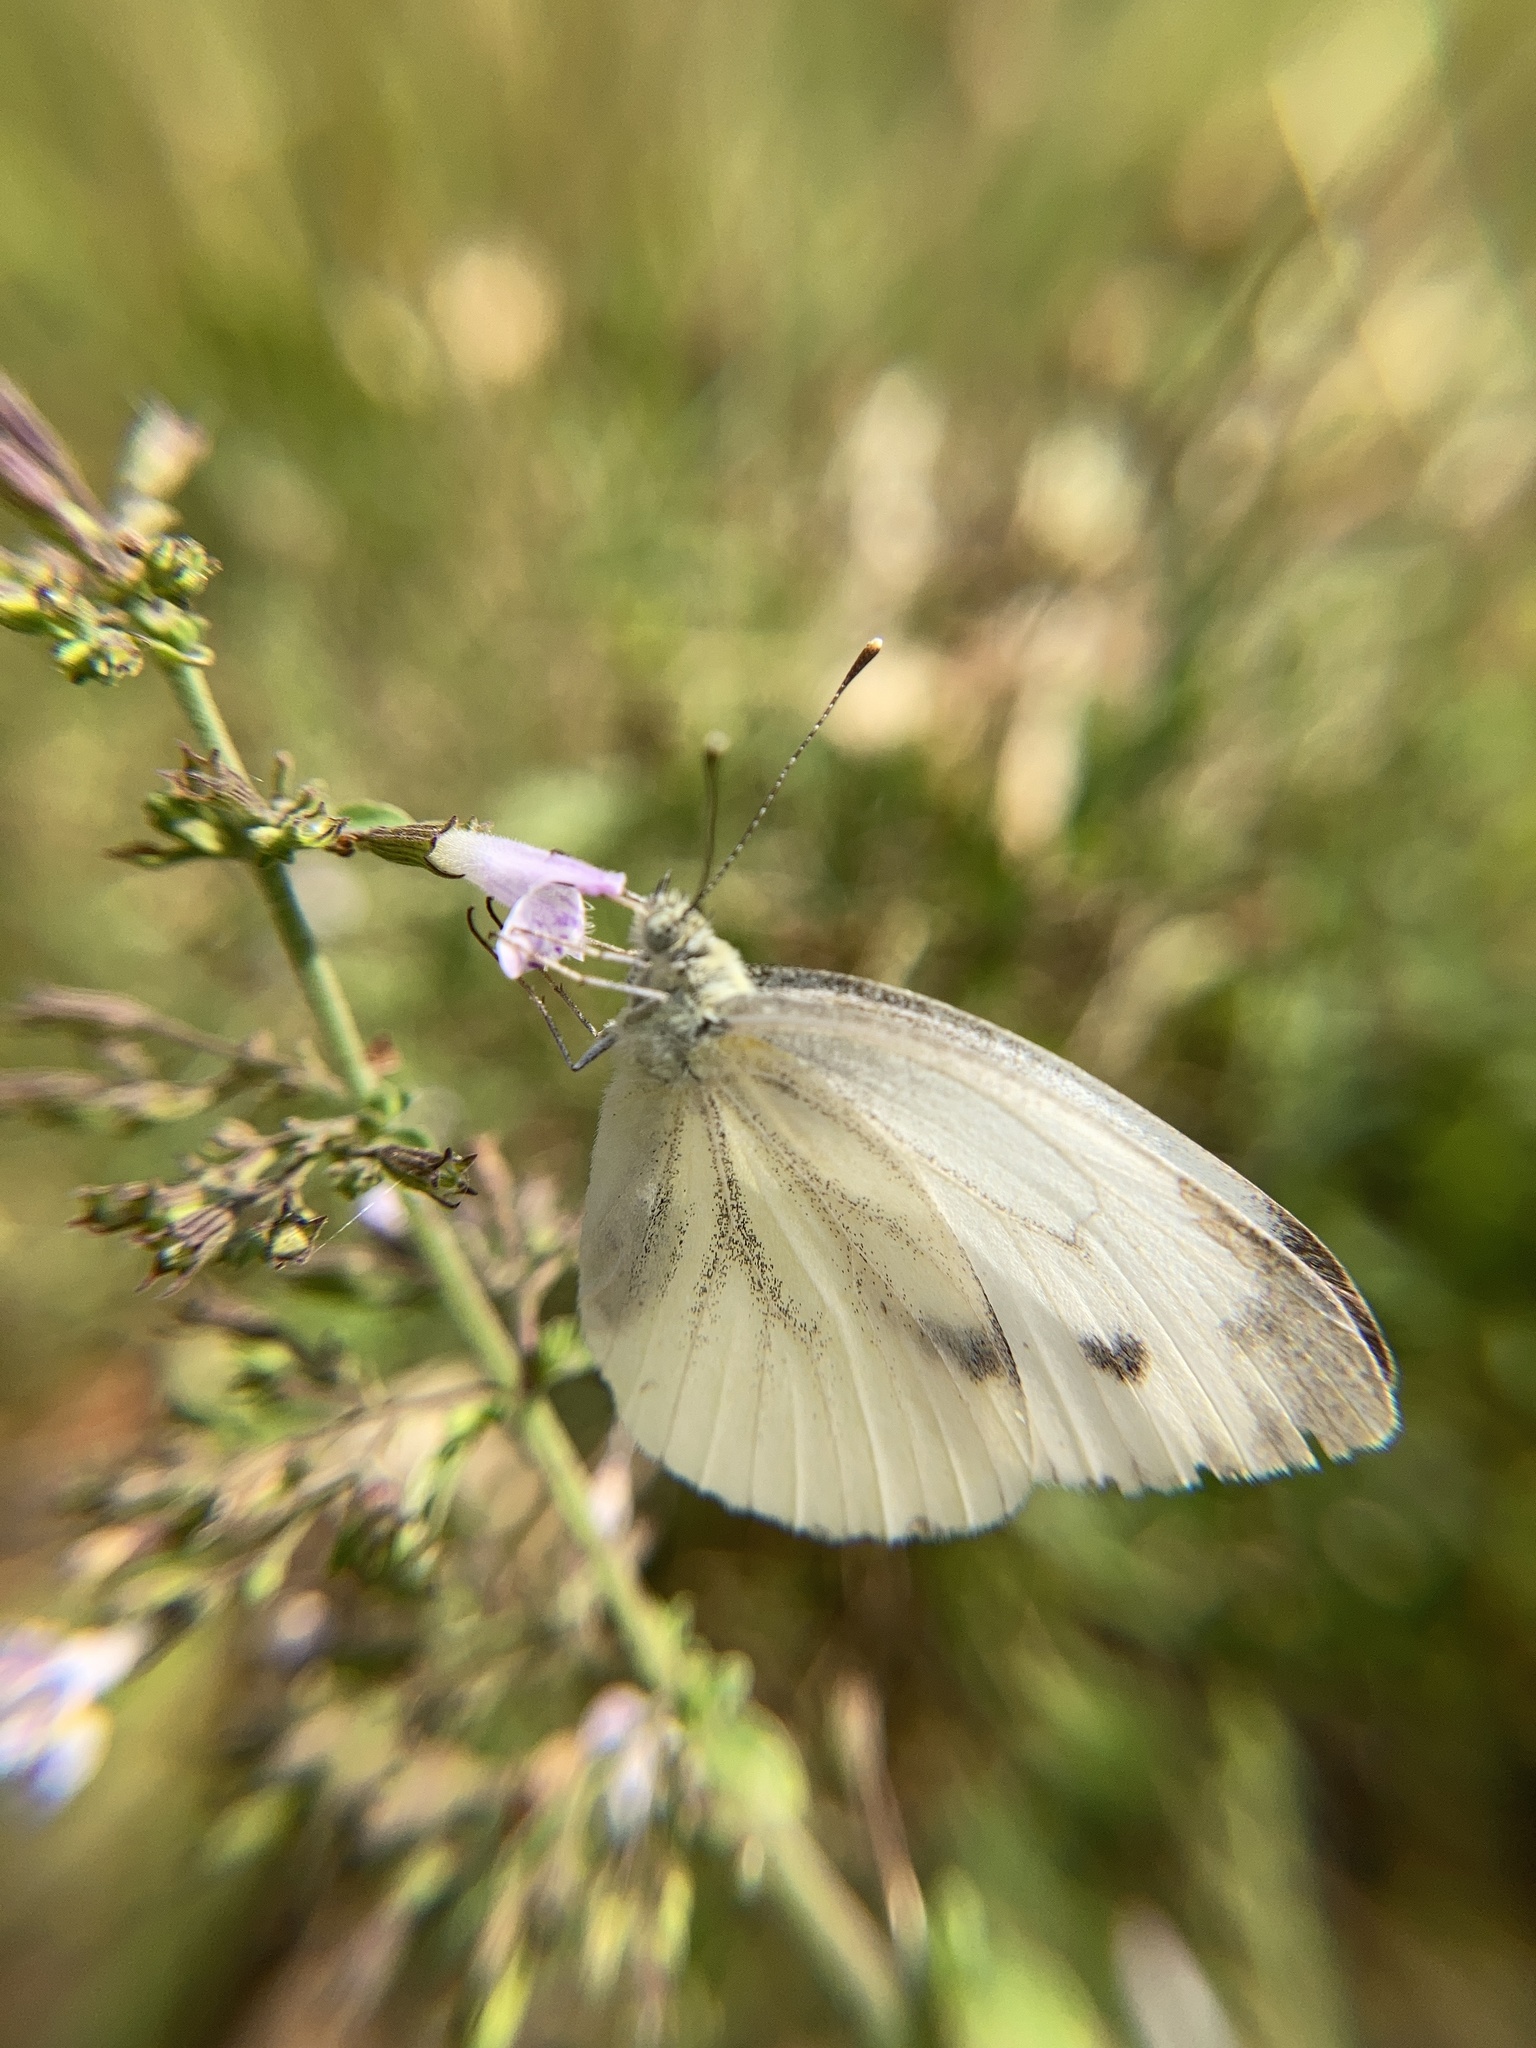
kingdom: Animalia
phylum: Arthropoda
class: Insecta
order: Lepidoptera
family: Pieridae
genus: Pieris
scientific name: Pieris rapae
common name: Small white
